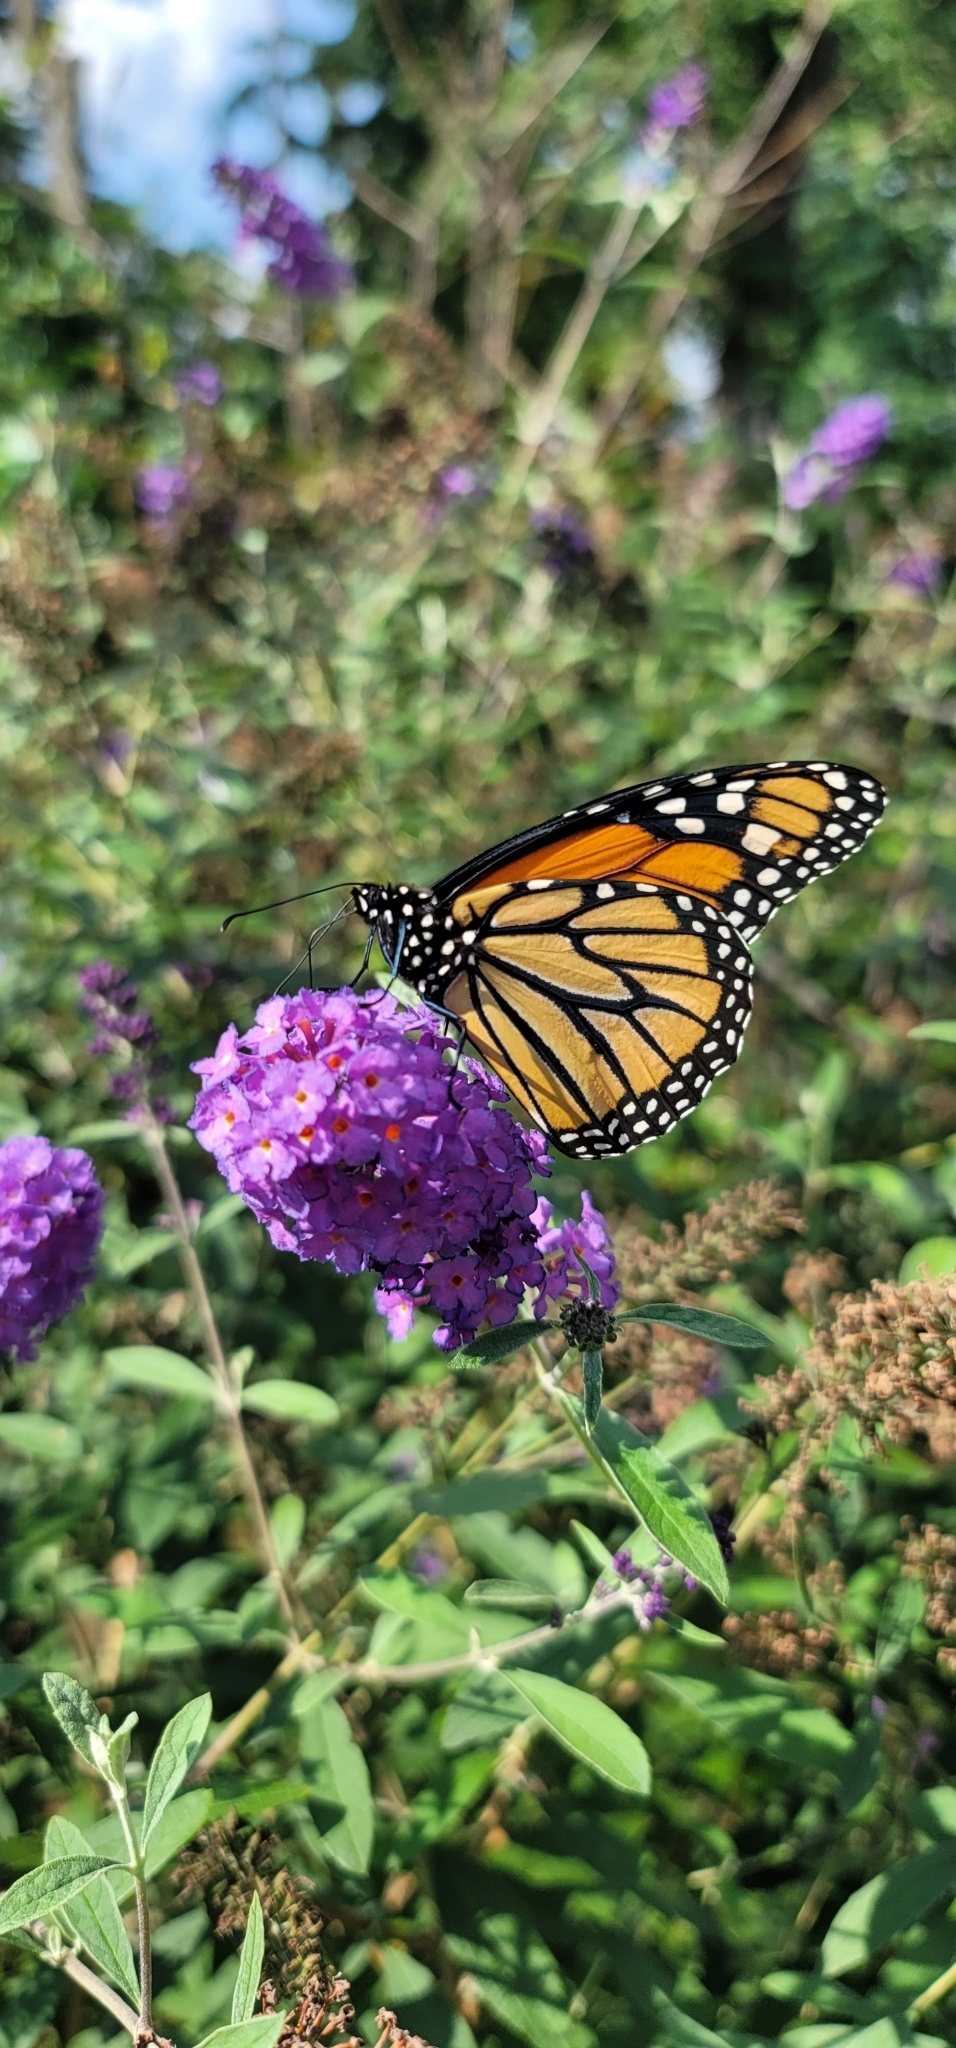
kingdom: Animalia
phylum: Arthropoda
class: Insecta
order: Lepidoptera
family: Nymphalidae
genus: Danaus
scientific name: Danaus plexippus
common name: Monarch
